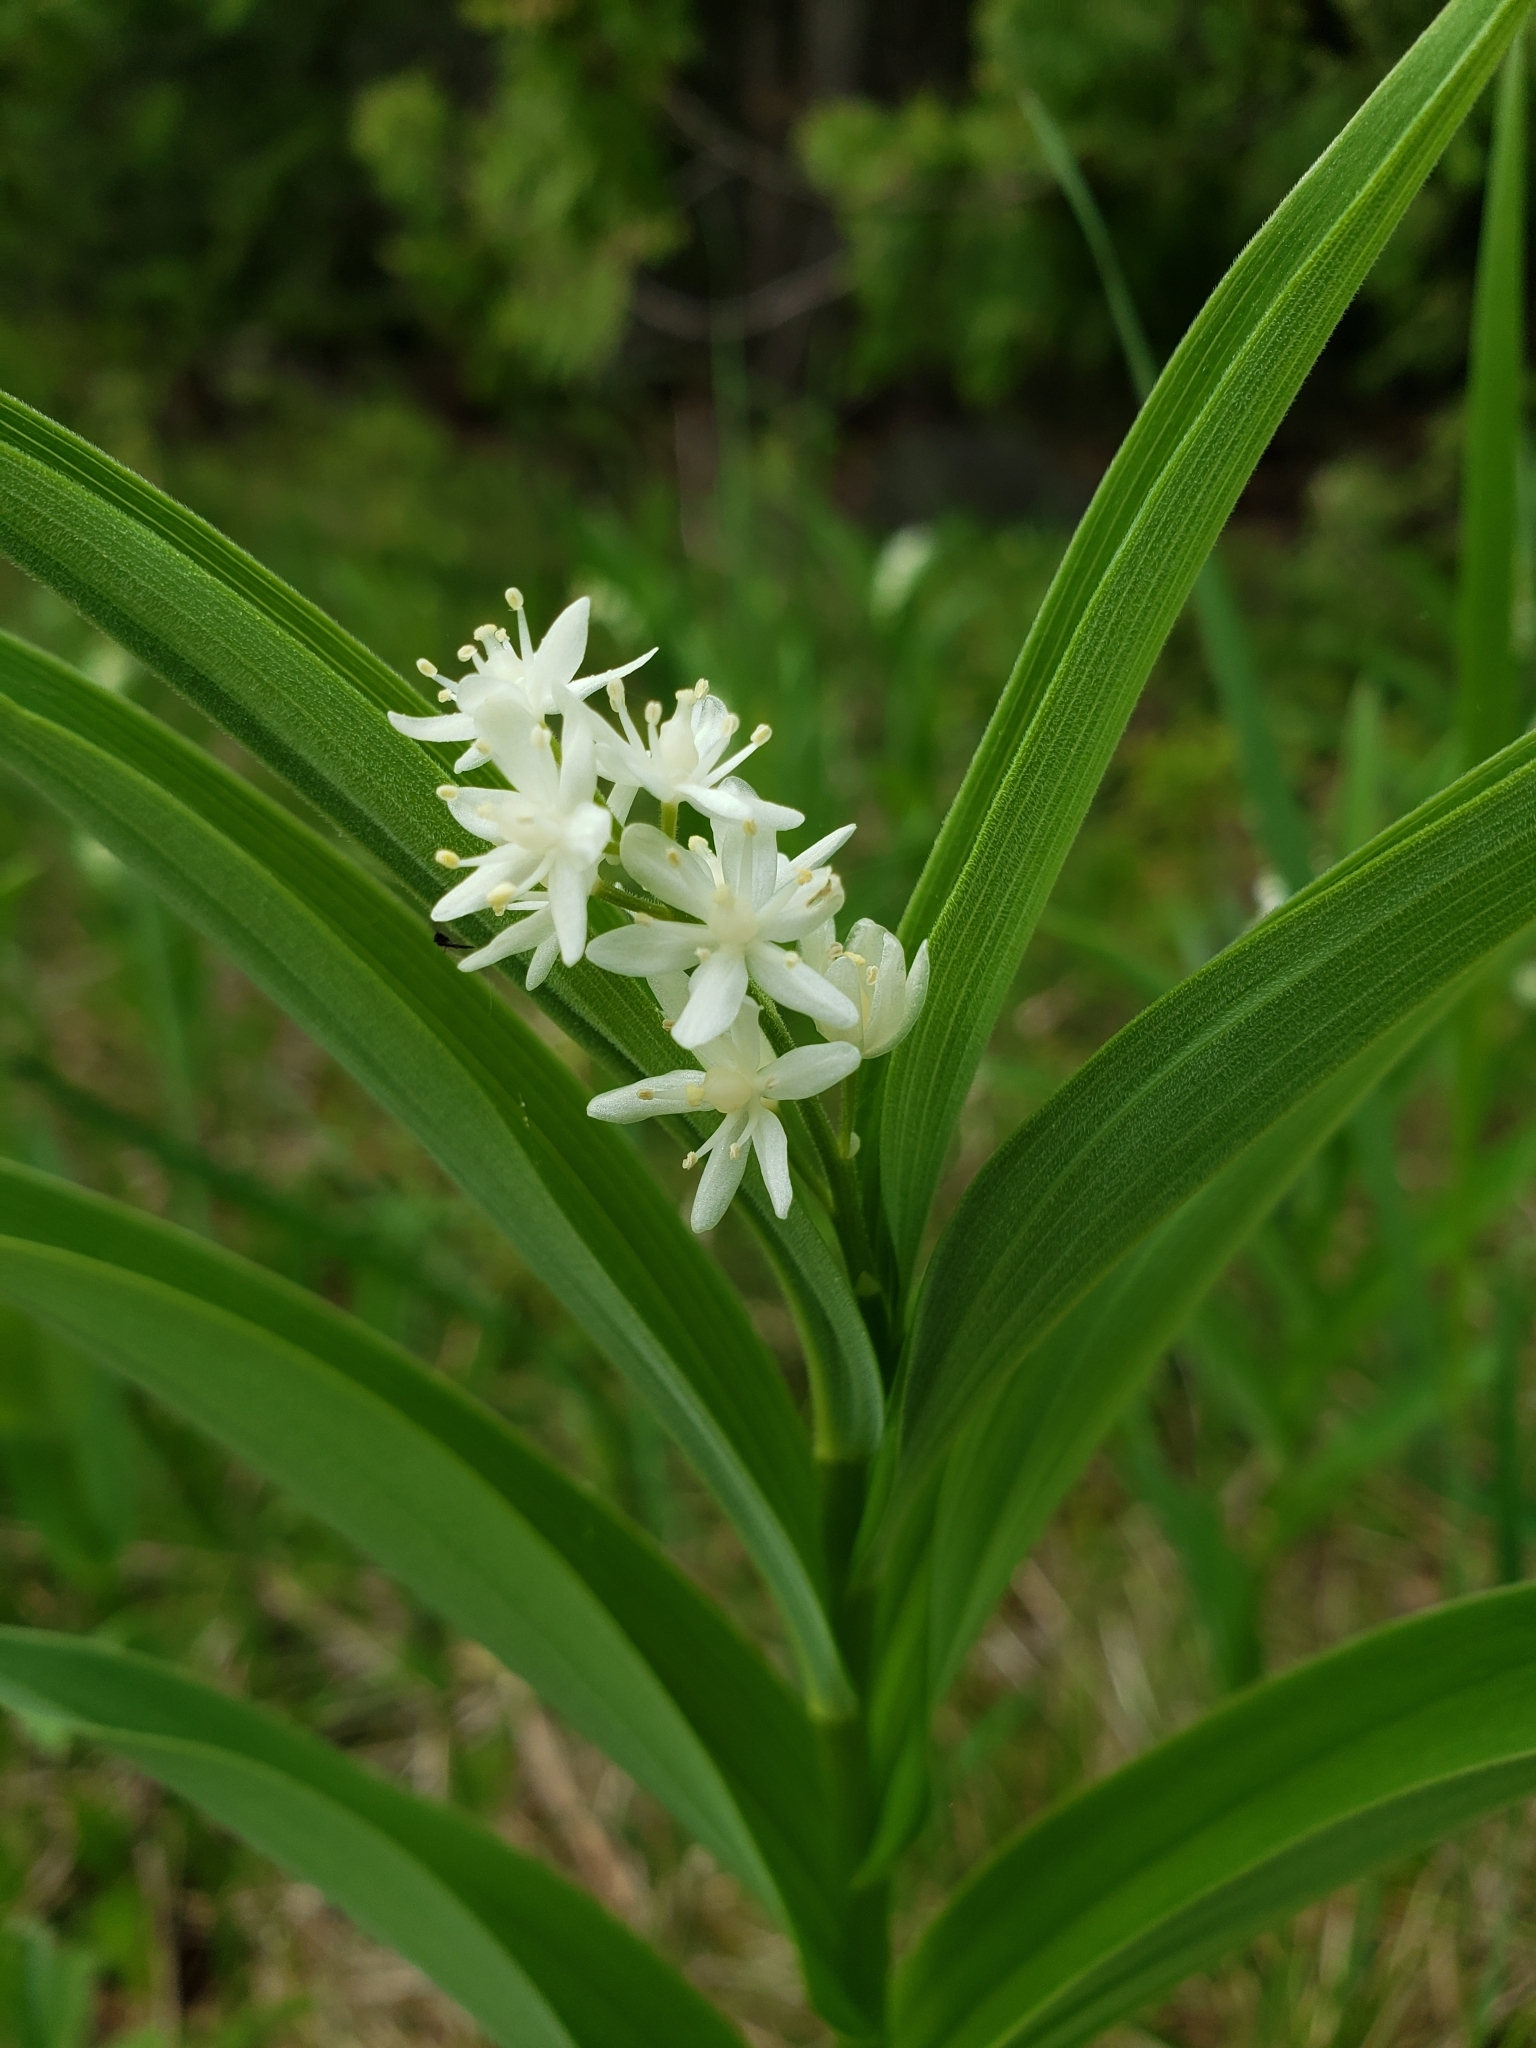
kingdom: Plantae
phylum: Tracheophyta
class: Liliopsida
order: Asparagales
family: Asparagaceae
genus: Maianthemum
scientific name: Maianthemum stellatum
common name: Little false solomon's seal
